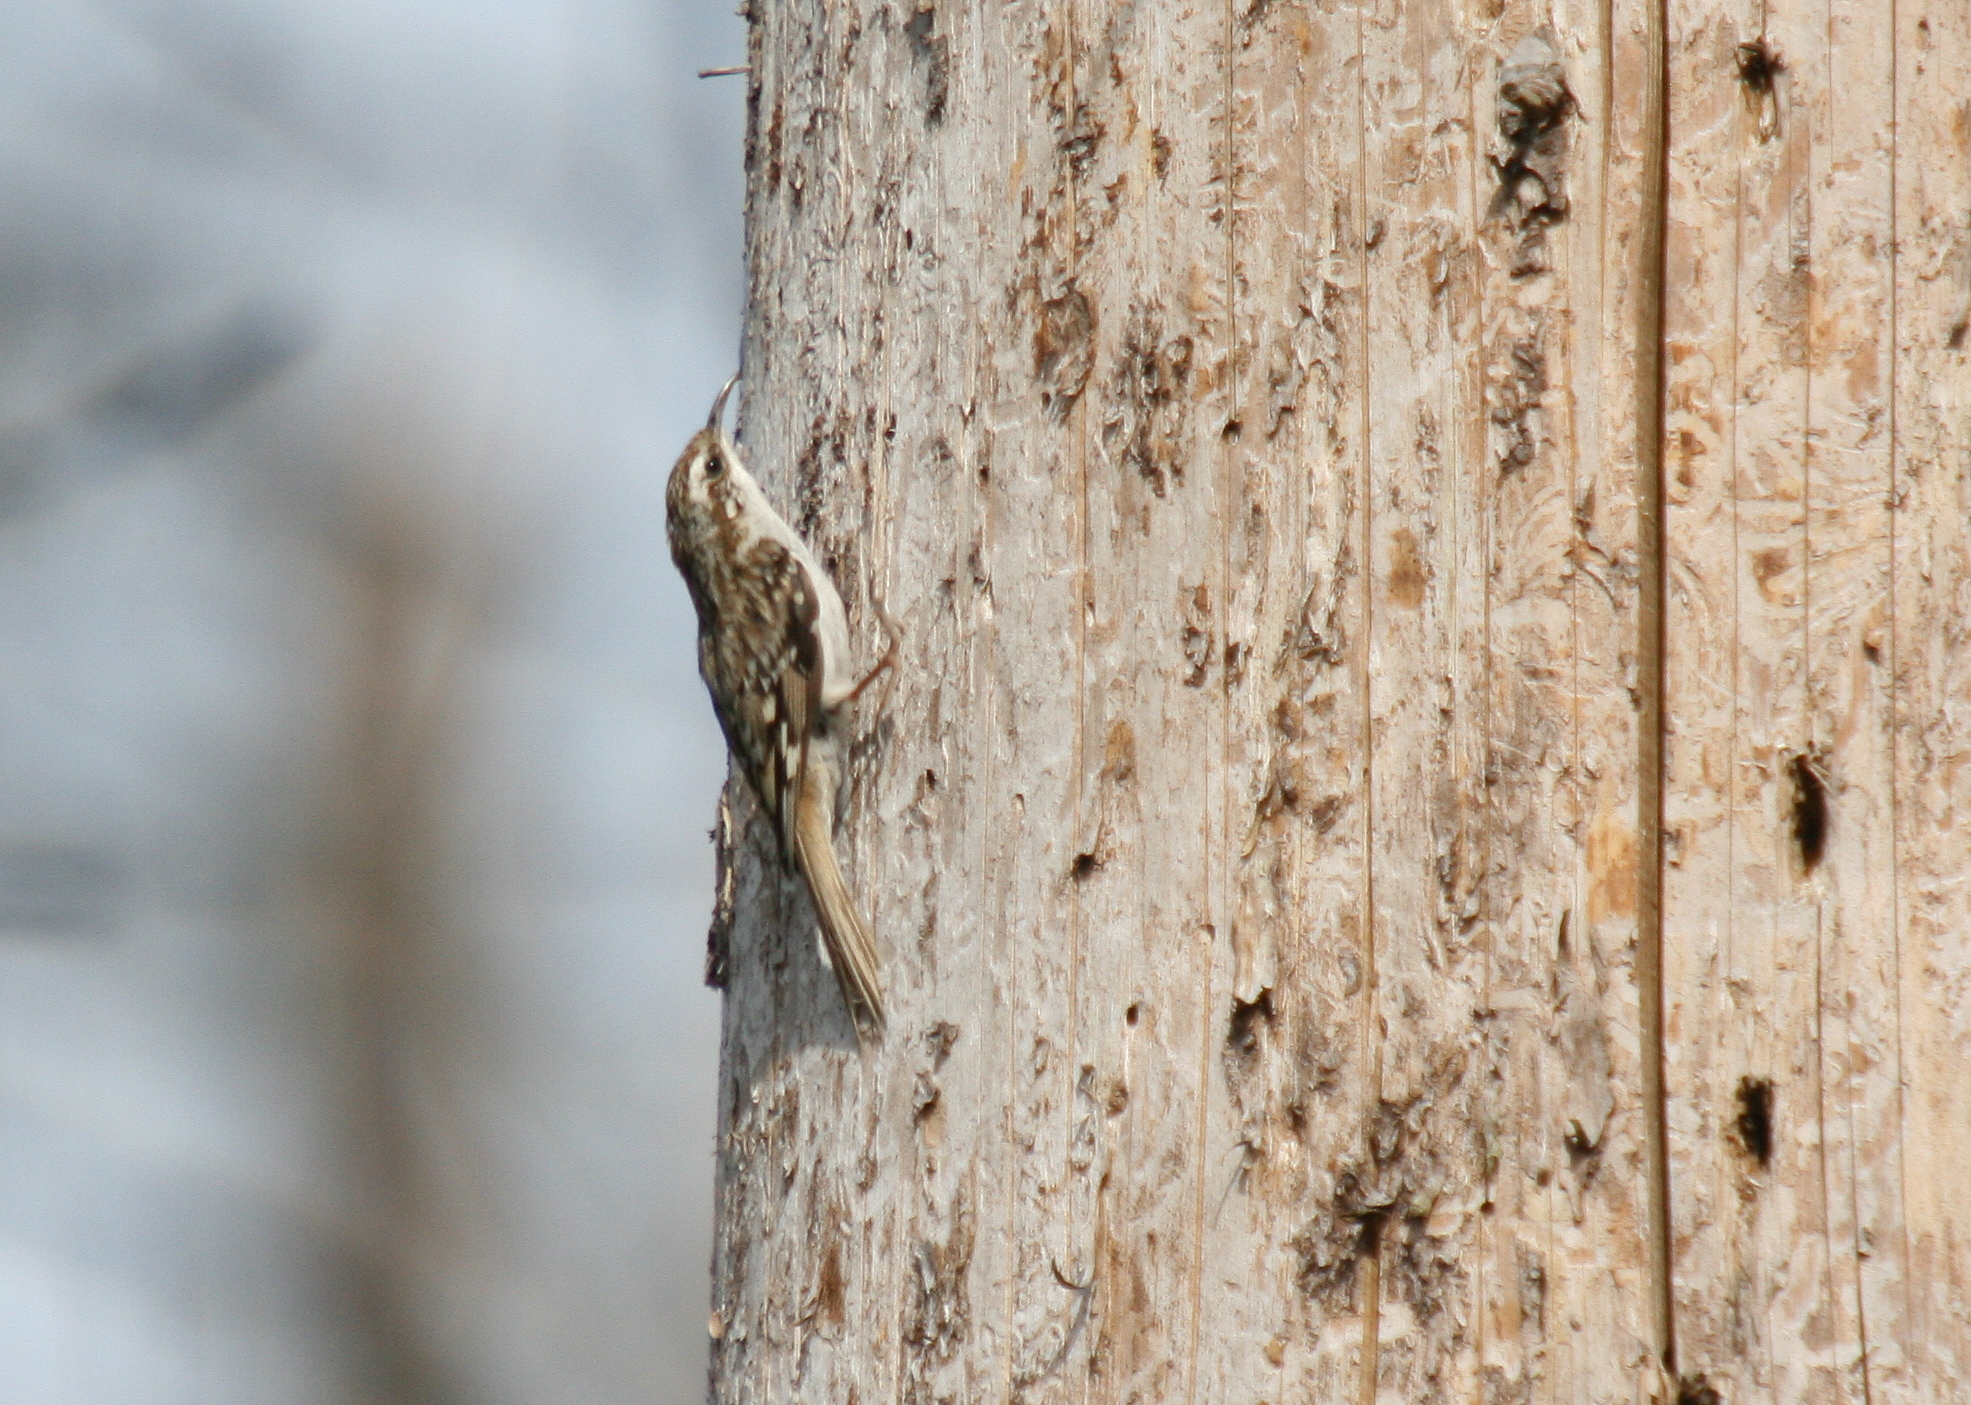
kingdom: Animalia
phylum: Chordata
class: Aves
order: Passeriformes
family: Certhiidae
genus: Certhia
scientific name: Certhia familiaris
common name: Eurasian treecreeper
